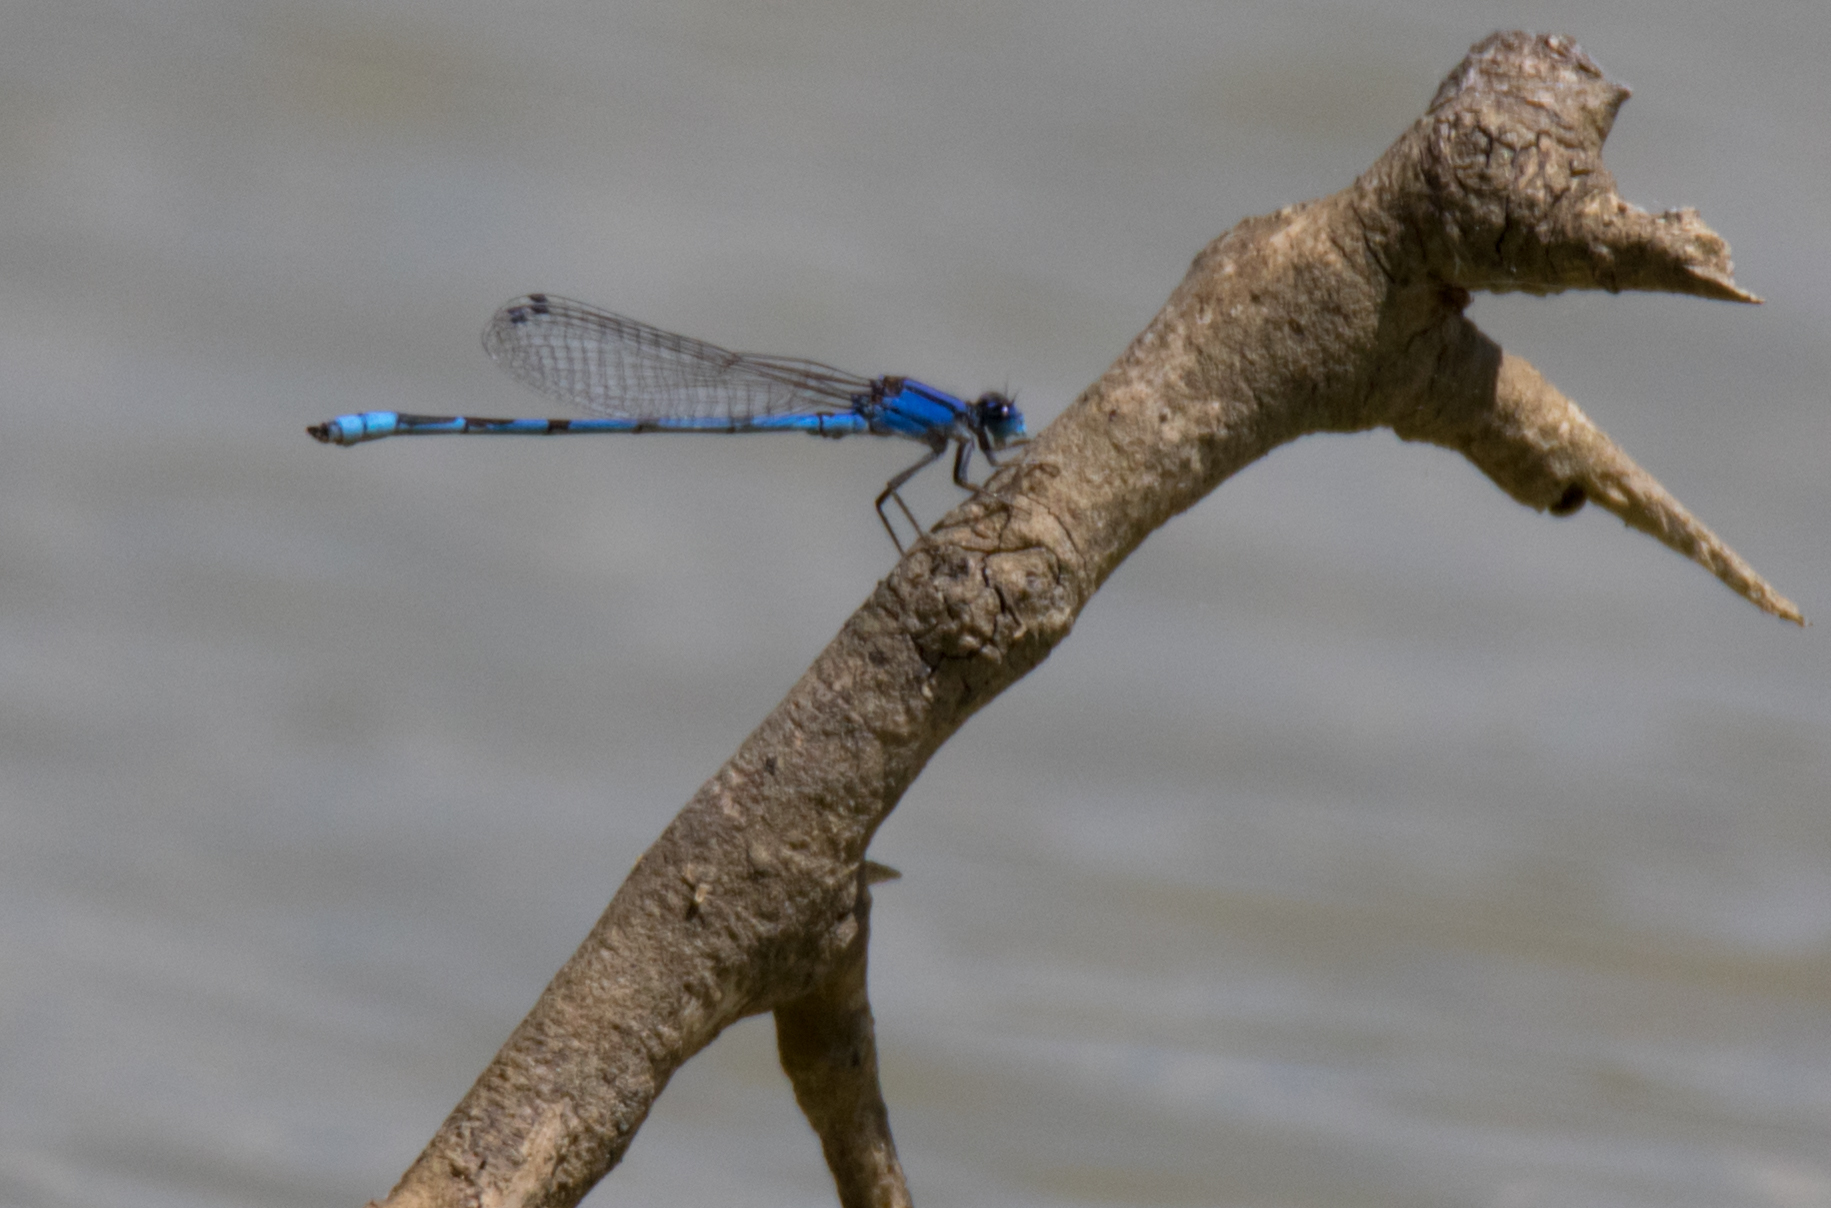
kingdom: Animalia
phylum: Arthropoda
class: Insecta
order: Odonata
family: Coenagrionidae
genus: Enallagma
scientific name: Enallagma civile
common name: Damselfly
